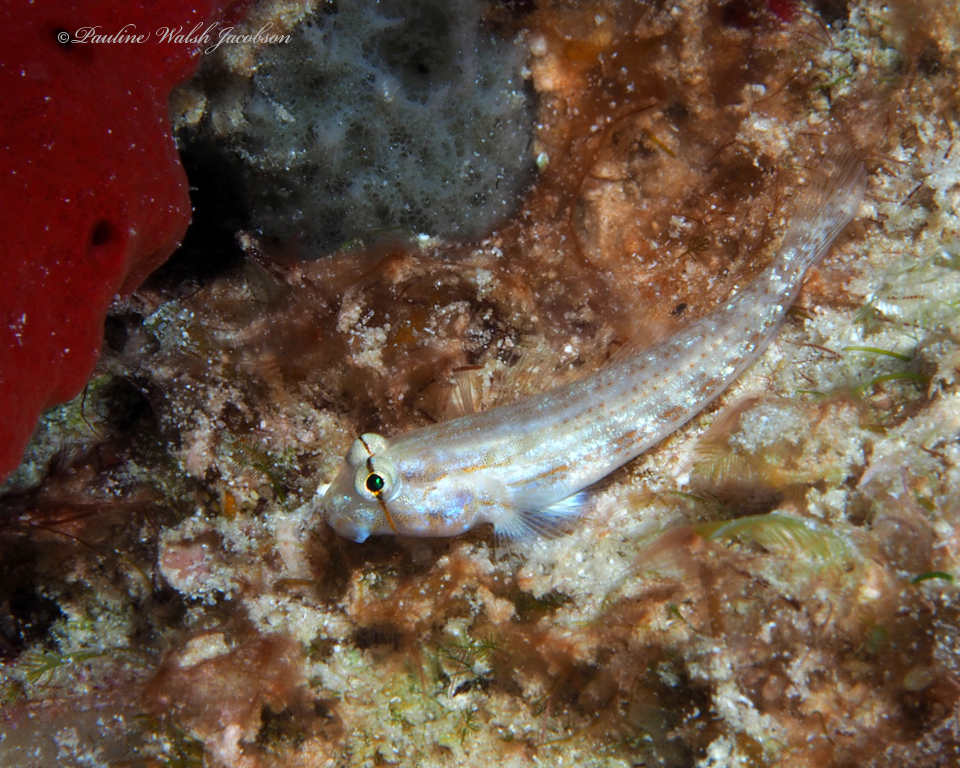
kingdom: Animalia
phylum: Chordata
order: Perciformes
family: Gobiidae
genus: Gnatholepis
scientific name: Gnatholepis thompsoni
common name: Goldspot goby
